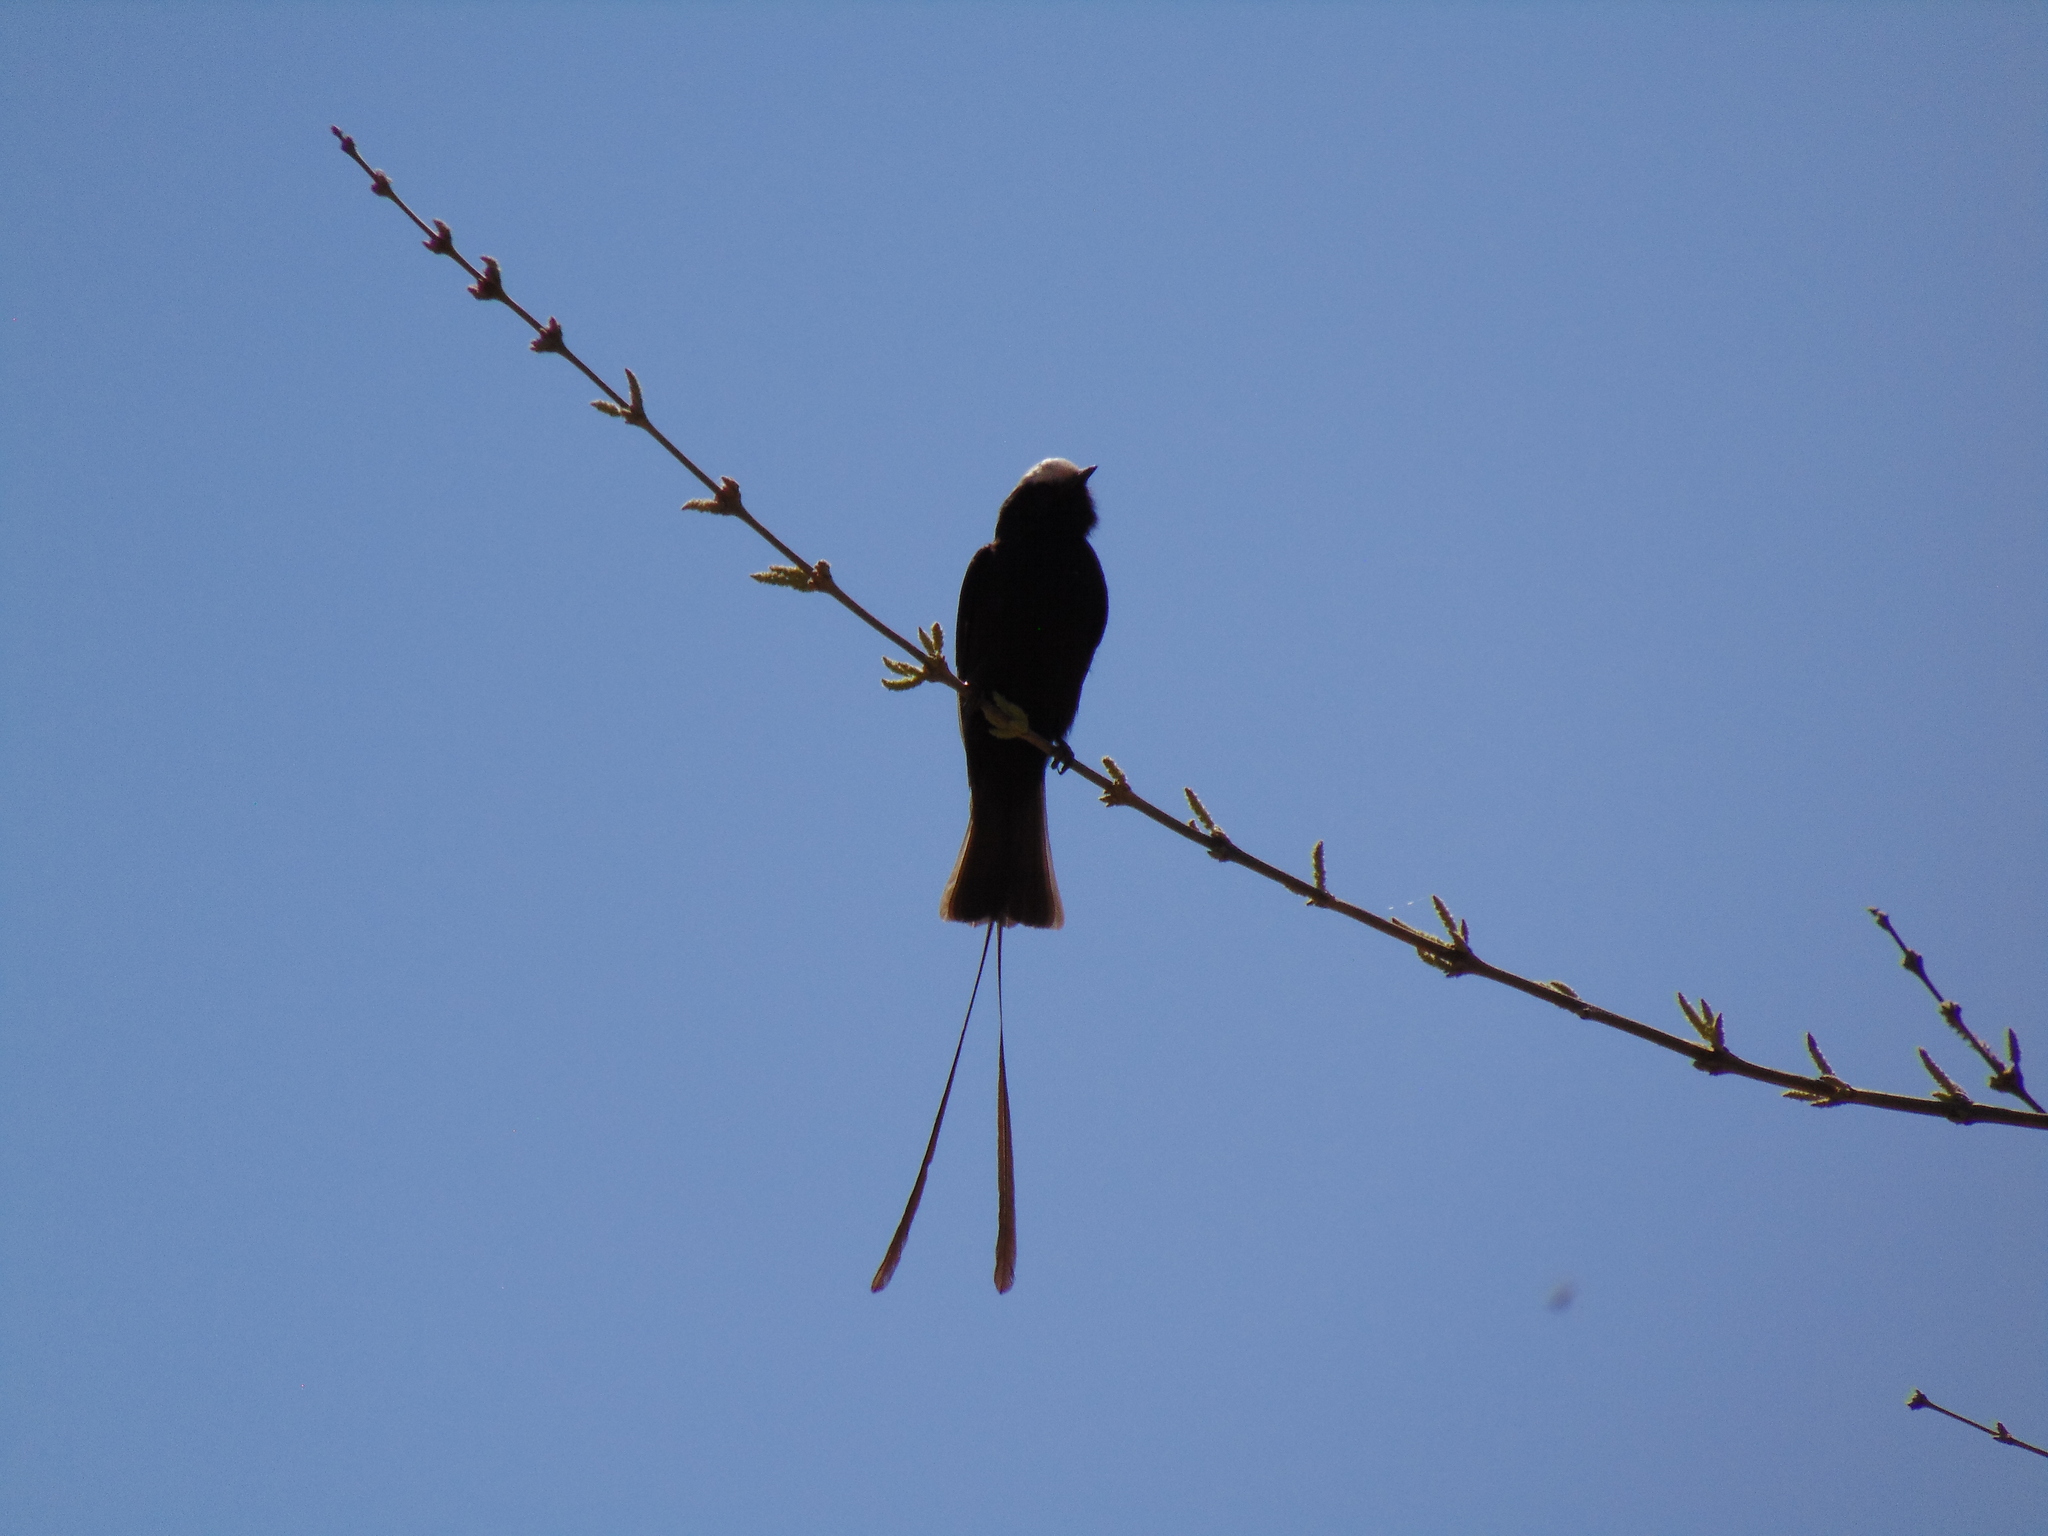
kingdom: Animalia
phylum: Chordata
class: Aves
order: Passeriformes
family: Tyrannidae
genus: Colonia
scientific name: Colonia colonus
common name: Long-tailed tyrant
